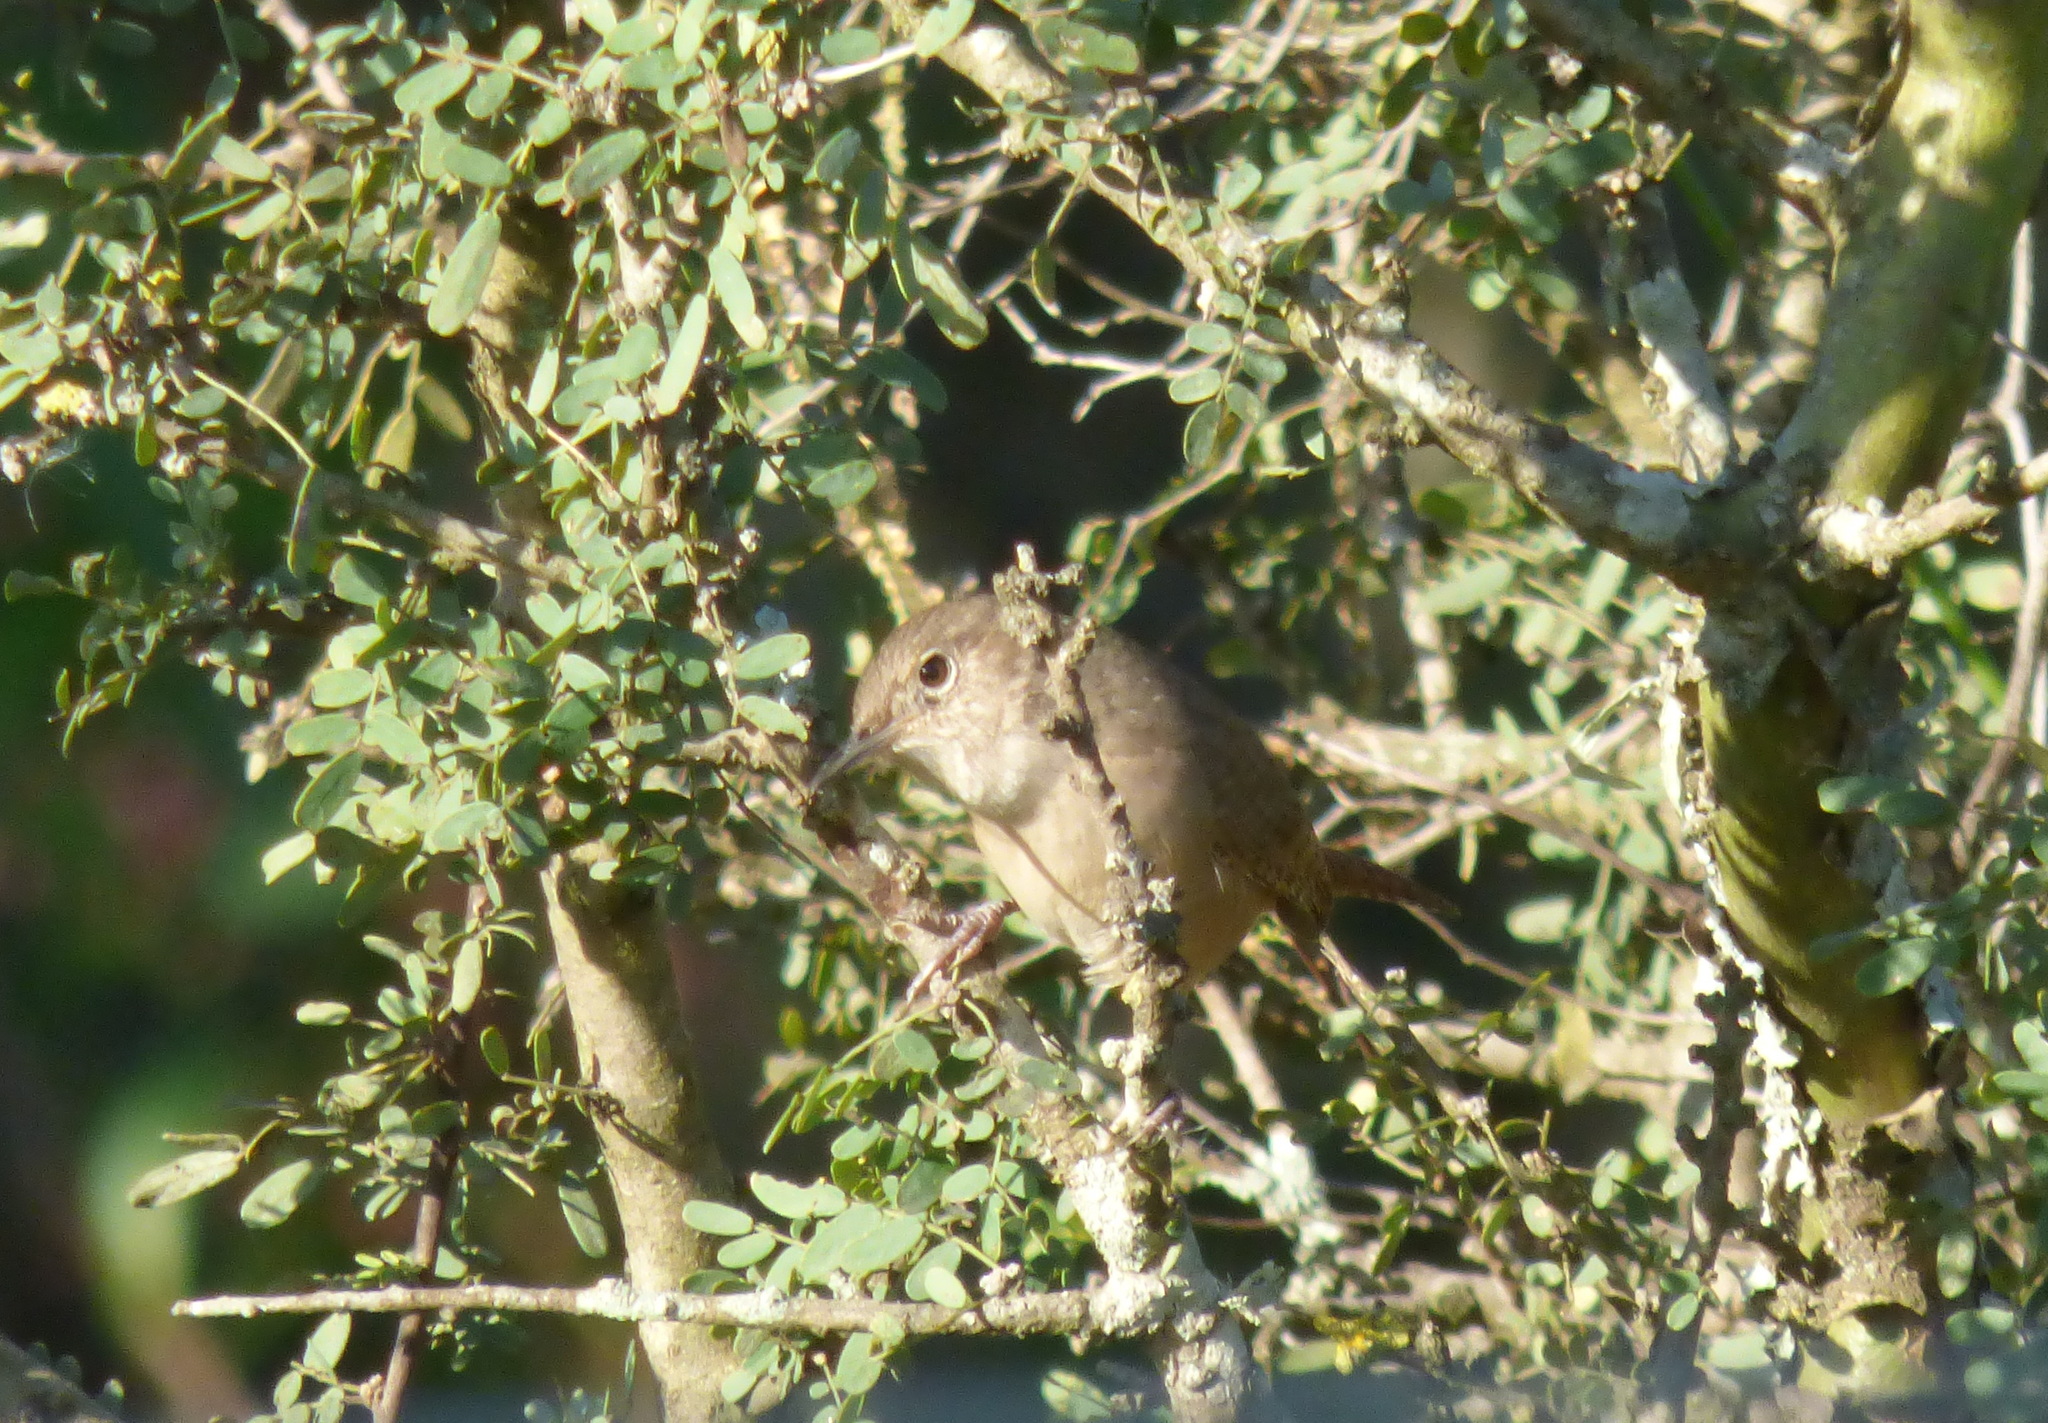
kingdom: Animalia
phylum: Chordata
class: Aves
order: Passeriformes
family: Troglodytidae
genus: Troglodytes
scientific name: Troglodytes aedon
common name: House wren
